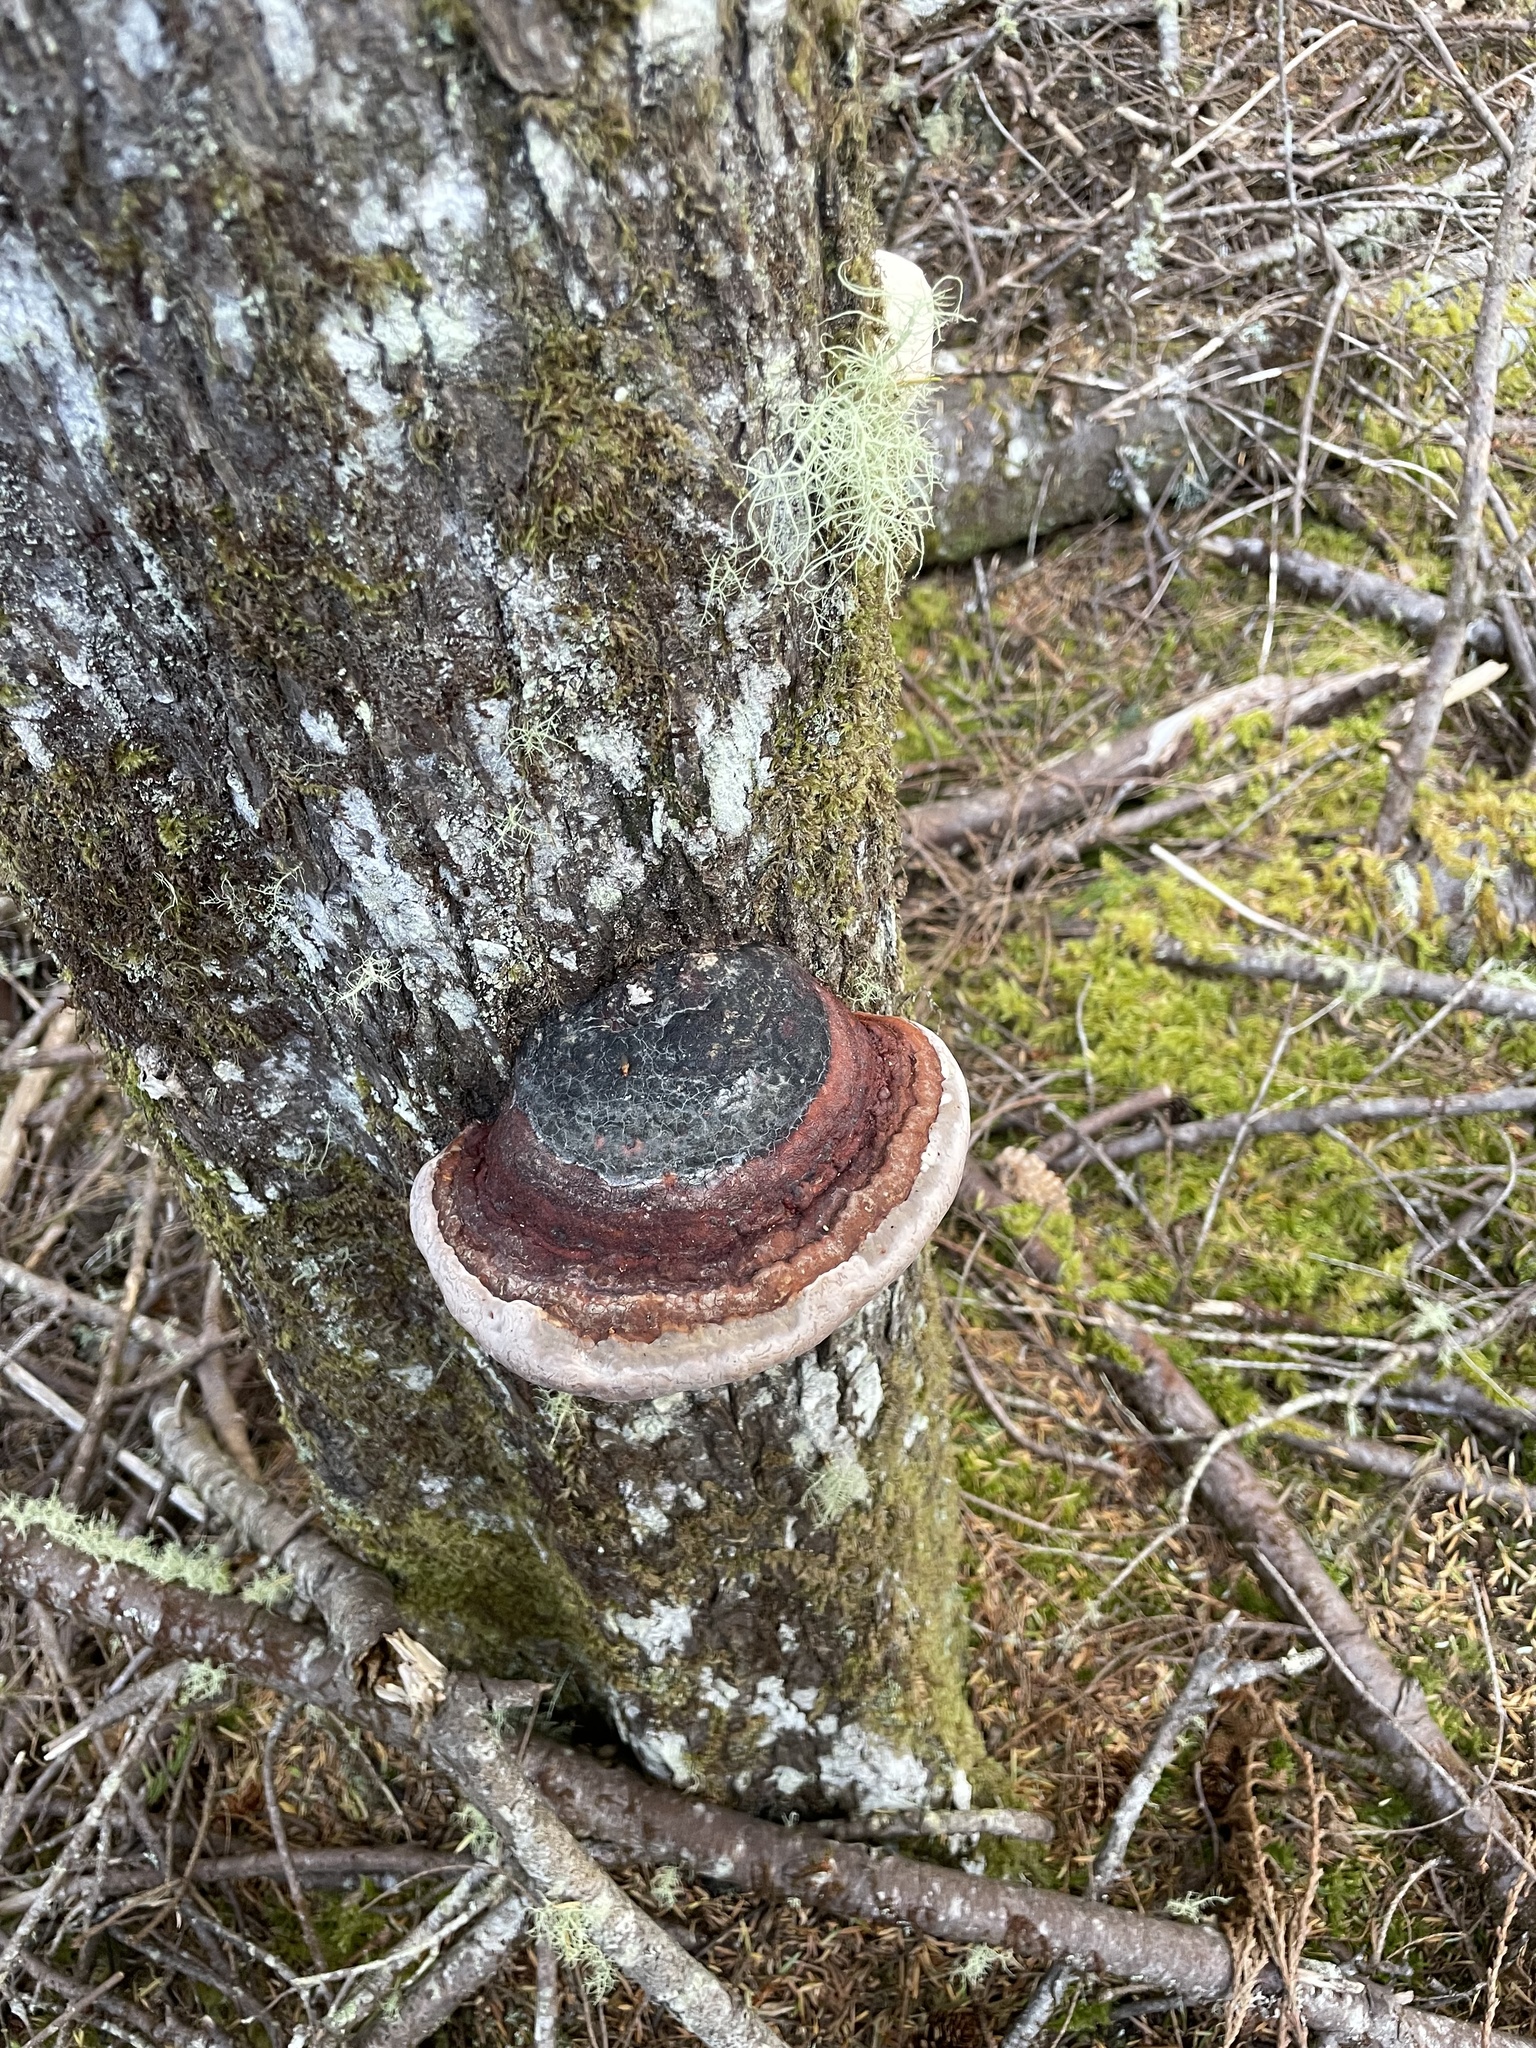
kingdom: Fungi
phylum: Basidiomycota
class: Agaricomycetes
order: Polyporales
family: Fomitopsidaceae
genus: Fomitopsis
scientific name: Fomitopsis mounceae
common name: Northern red belt
